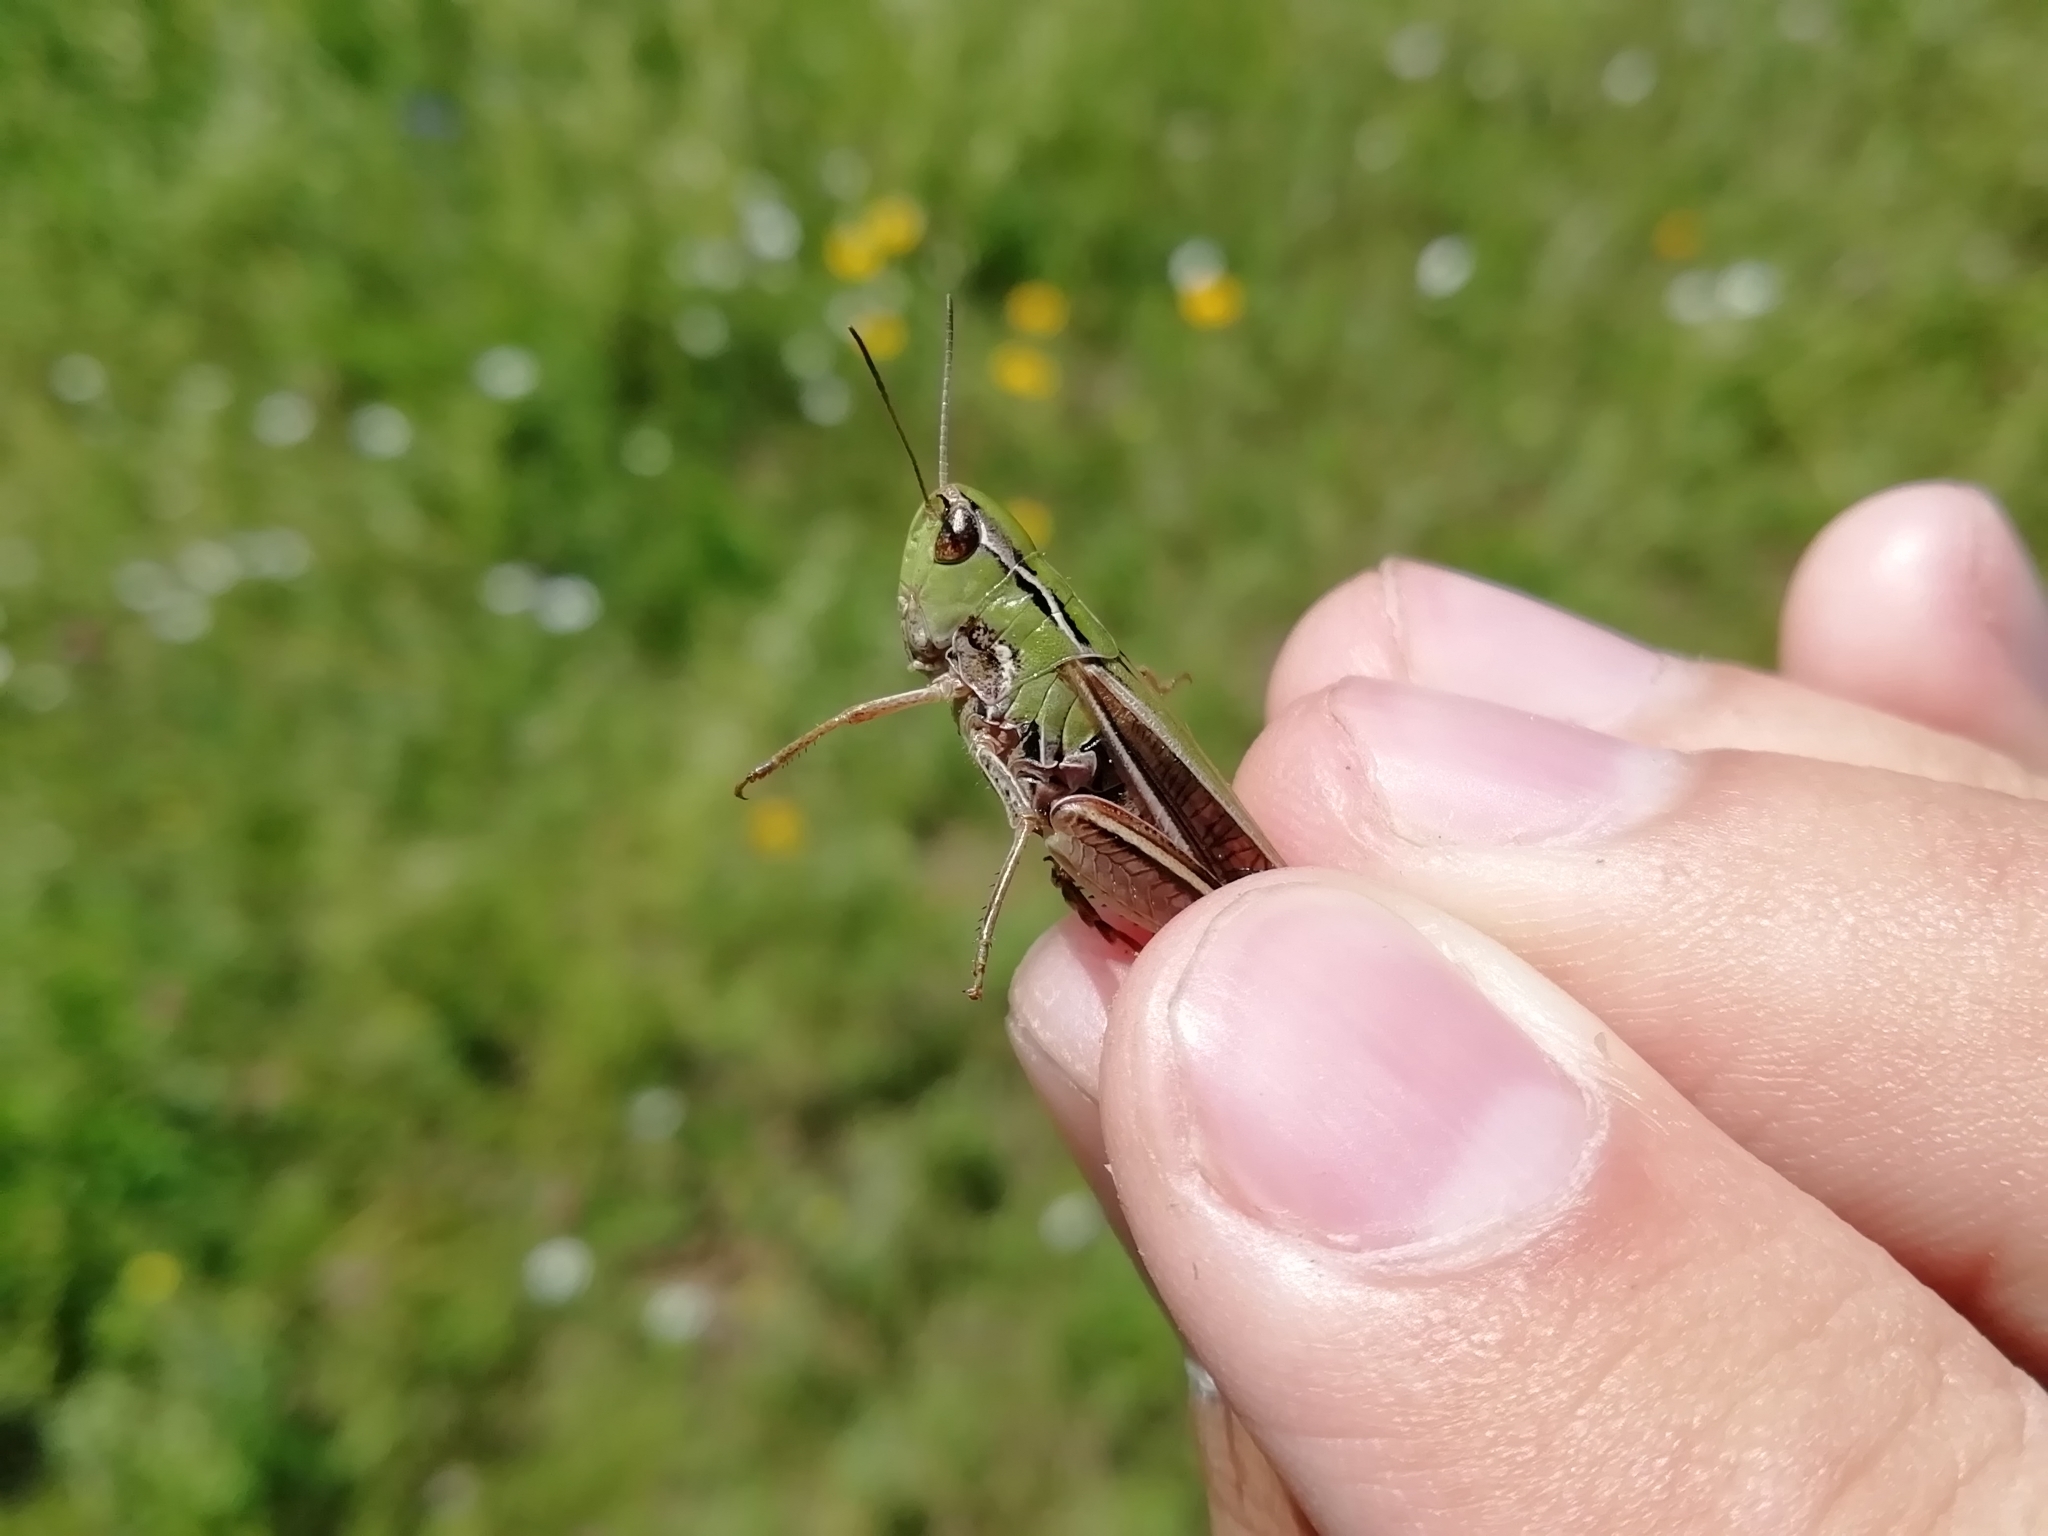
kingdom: Animalia
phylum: Arthropoda
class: Insecta
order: Orthoptera
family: Acrididae
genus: Stenobothrus
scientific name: Stenobothrus lineatus
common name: Stripe-winged grasshopper
